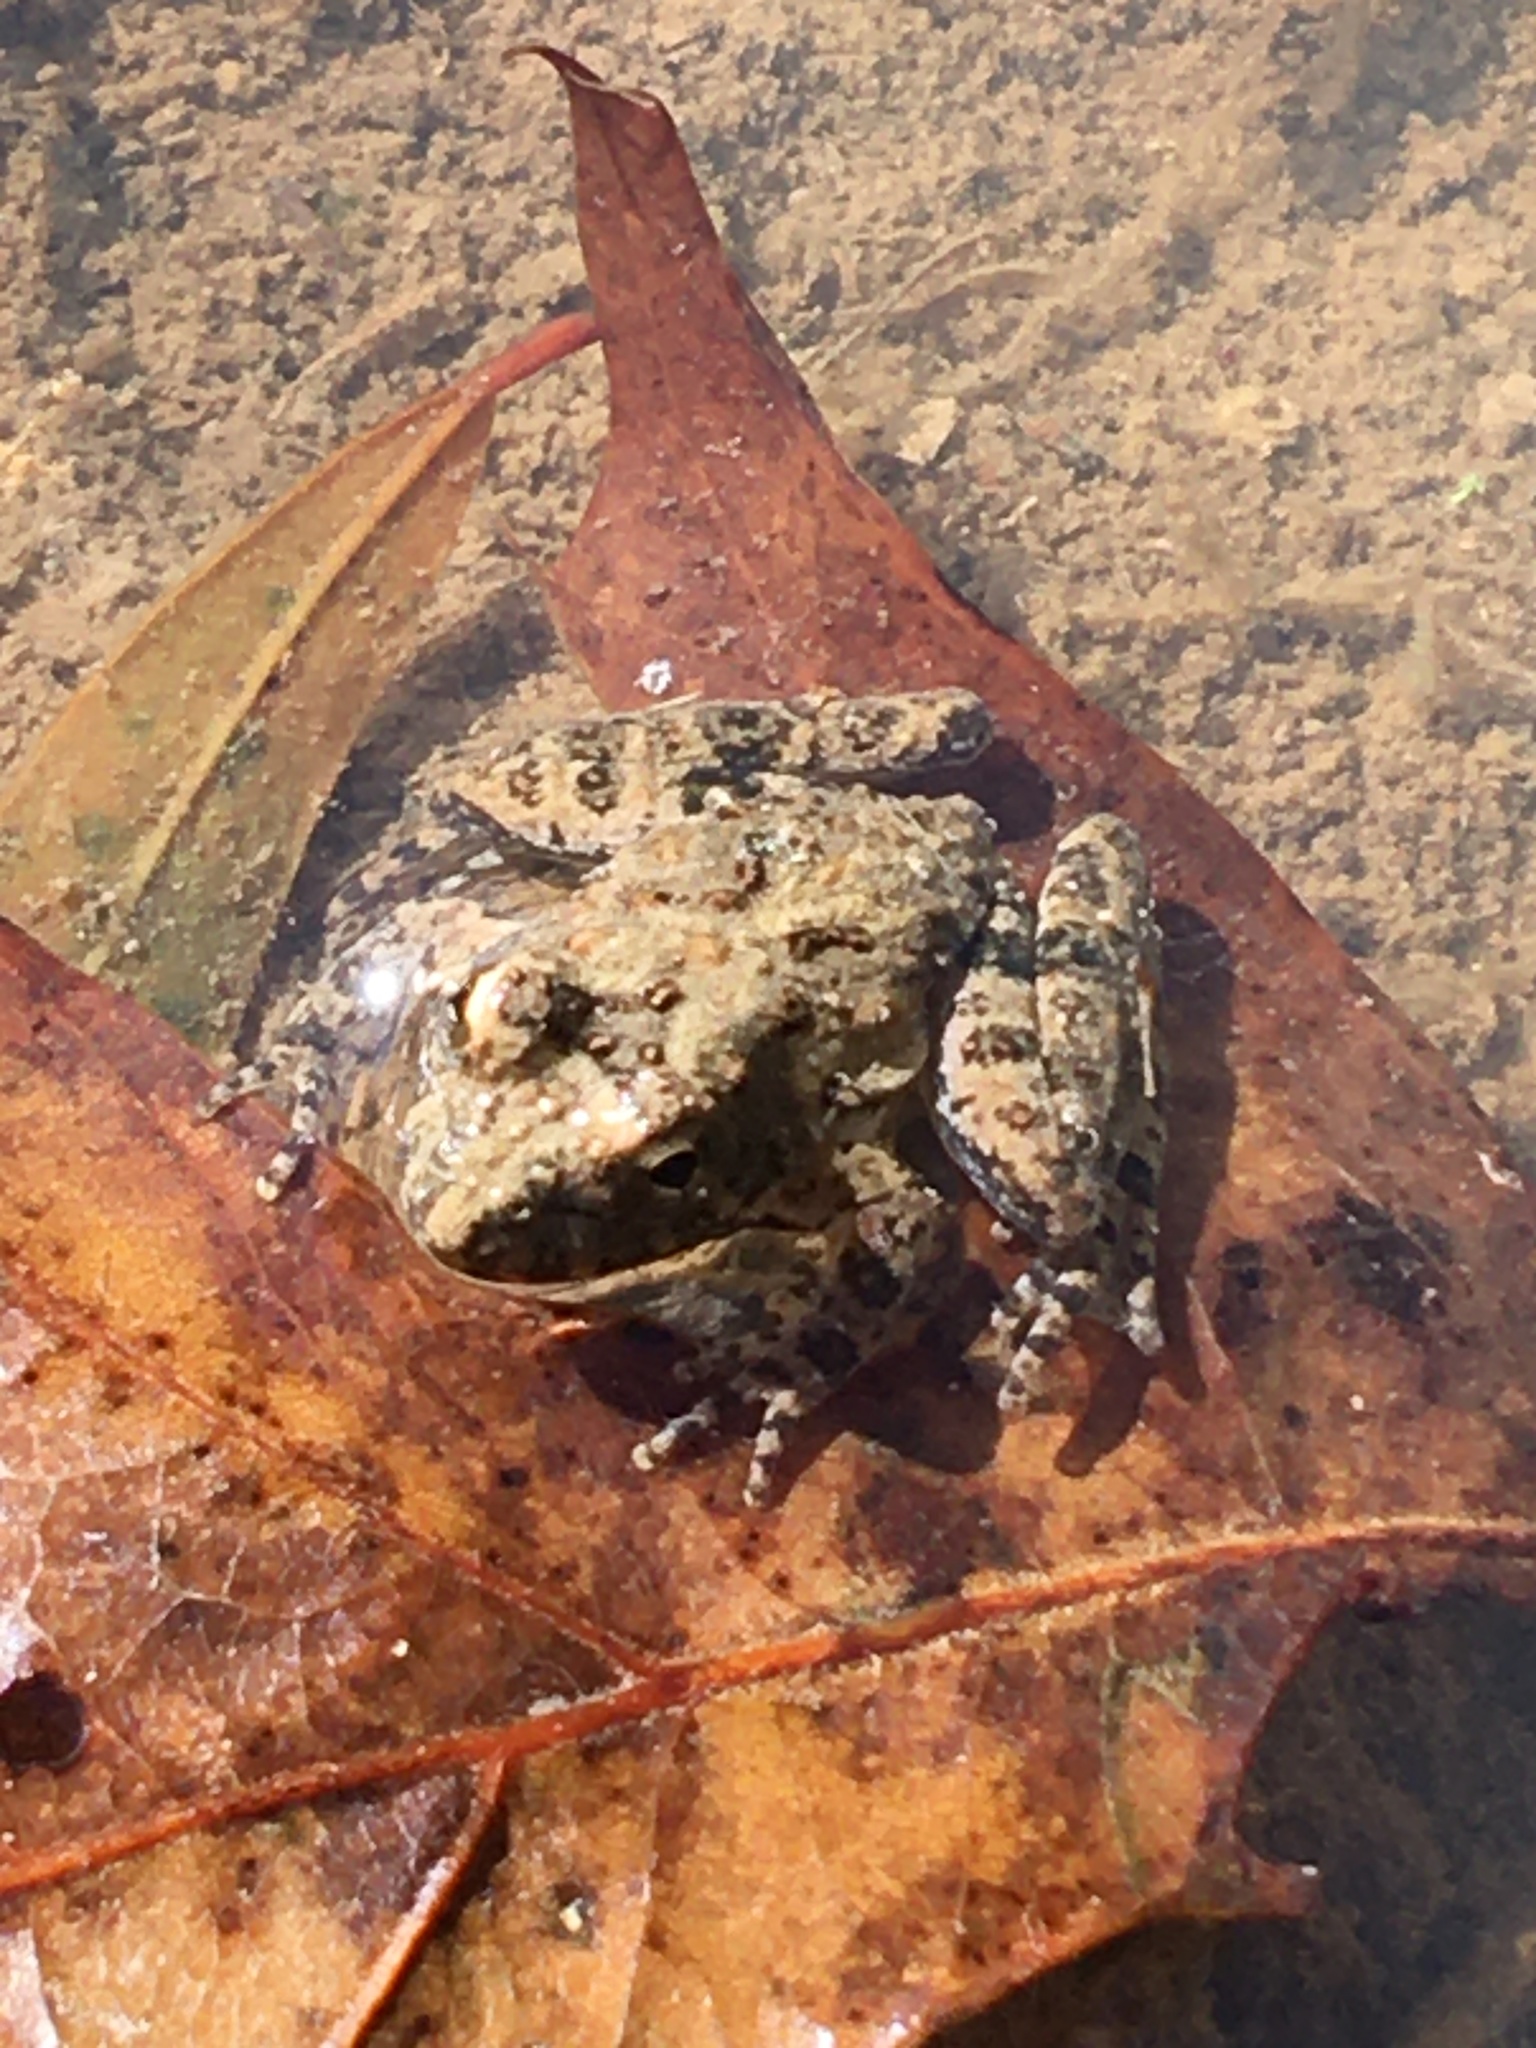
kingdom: Animalia
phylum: Chordata
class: Amphibia
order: Anura
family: Hylidae
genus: Acris
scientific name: Acris blanchardi
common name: Blanchard's cricket frog
